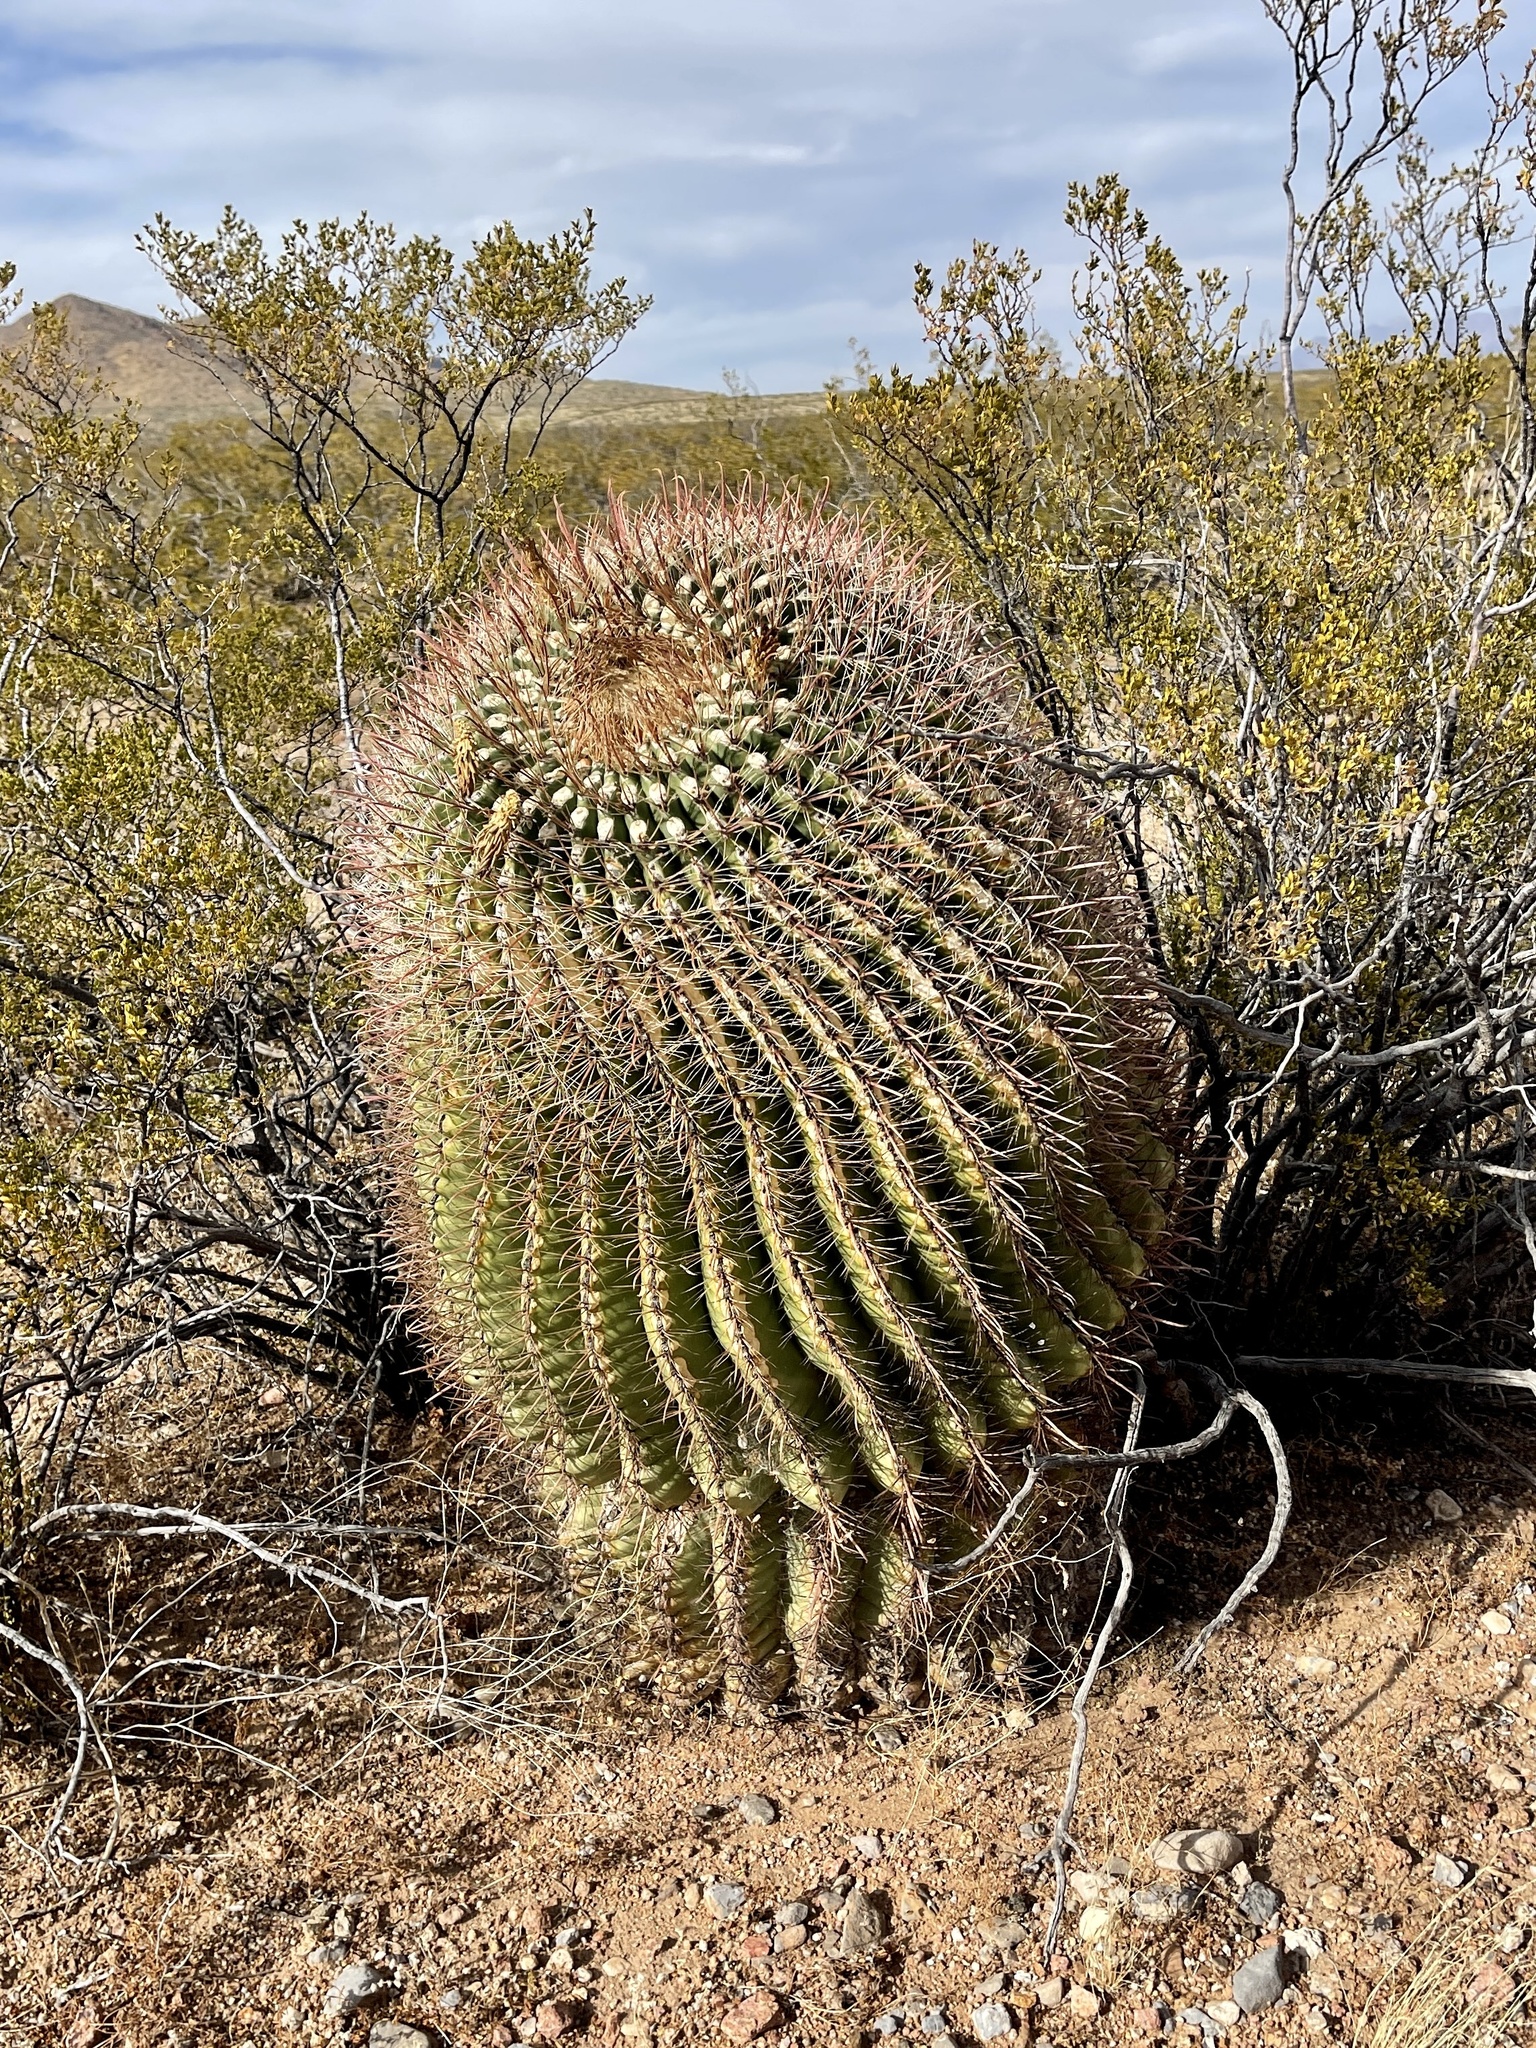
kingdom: Plantae
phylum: Tracheophyta
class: Magnoliopsida
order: Caryophyllales
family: Cactaceae
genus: Ferocactus
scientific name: Ferocactus wislizeni
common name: Candy barrel cactus
